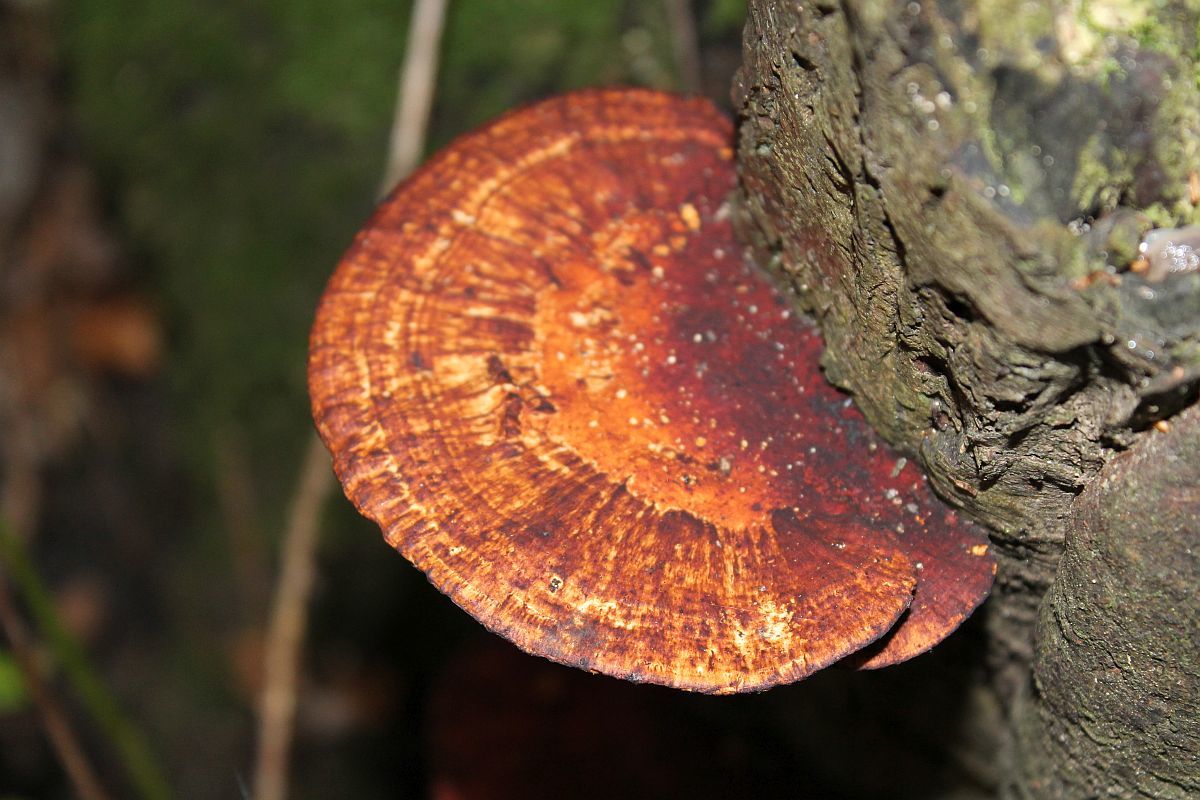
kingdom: Fungi
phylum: Basidiomycota
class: Agaricomycetes
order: Polyporales
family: Polyporaceae
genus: Daedaleopsis
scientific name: Daedaleopsis confragosa
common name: Blushing bracket
